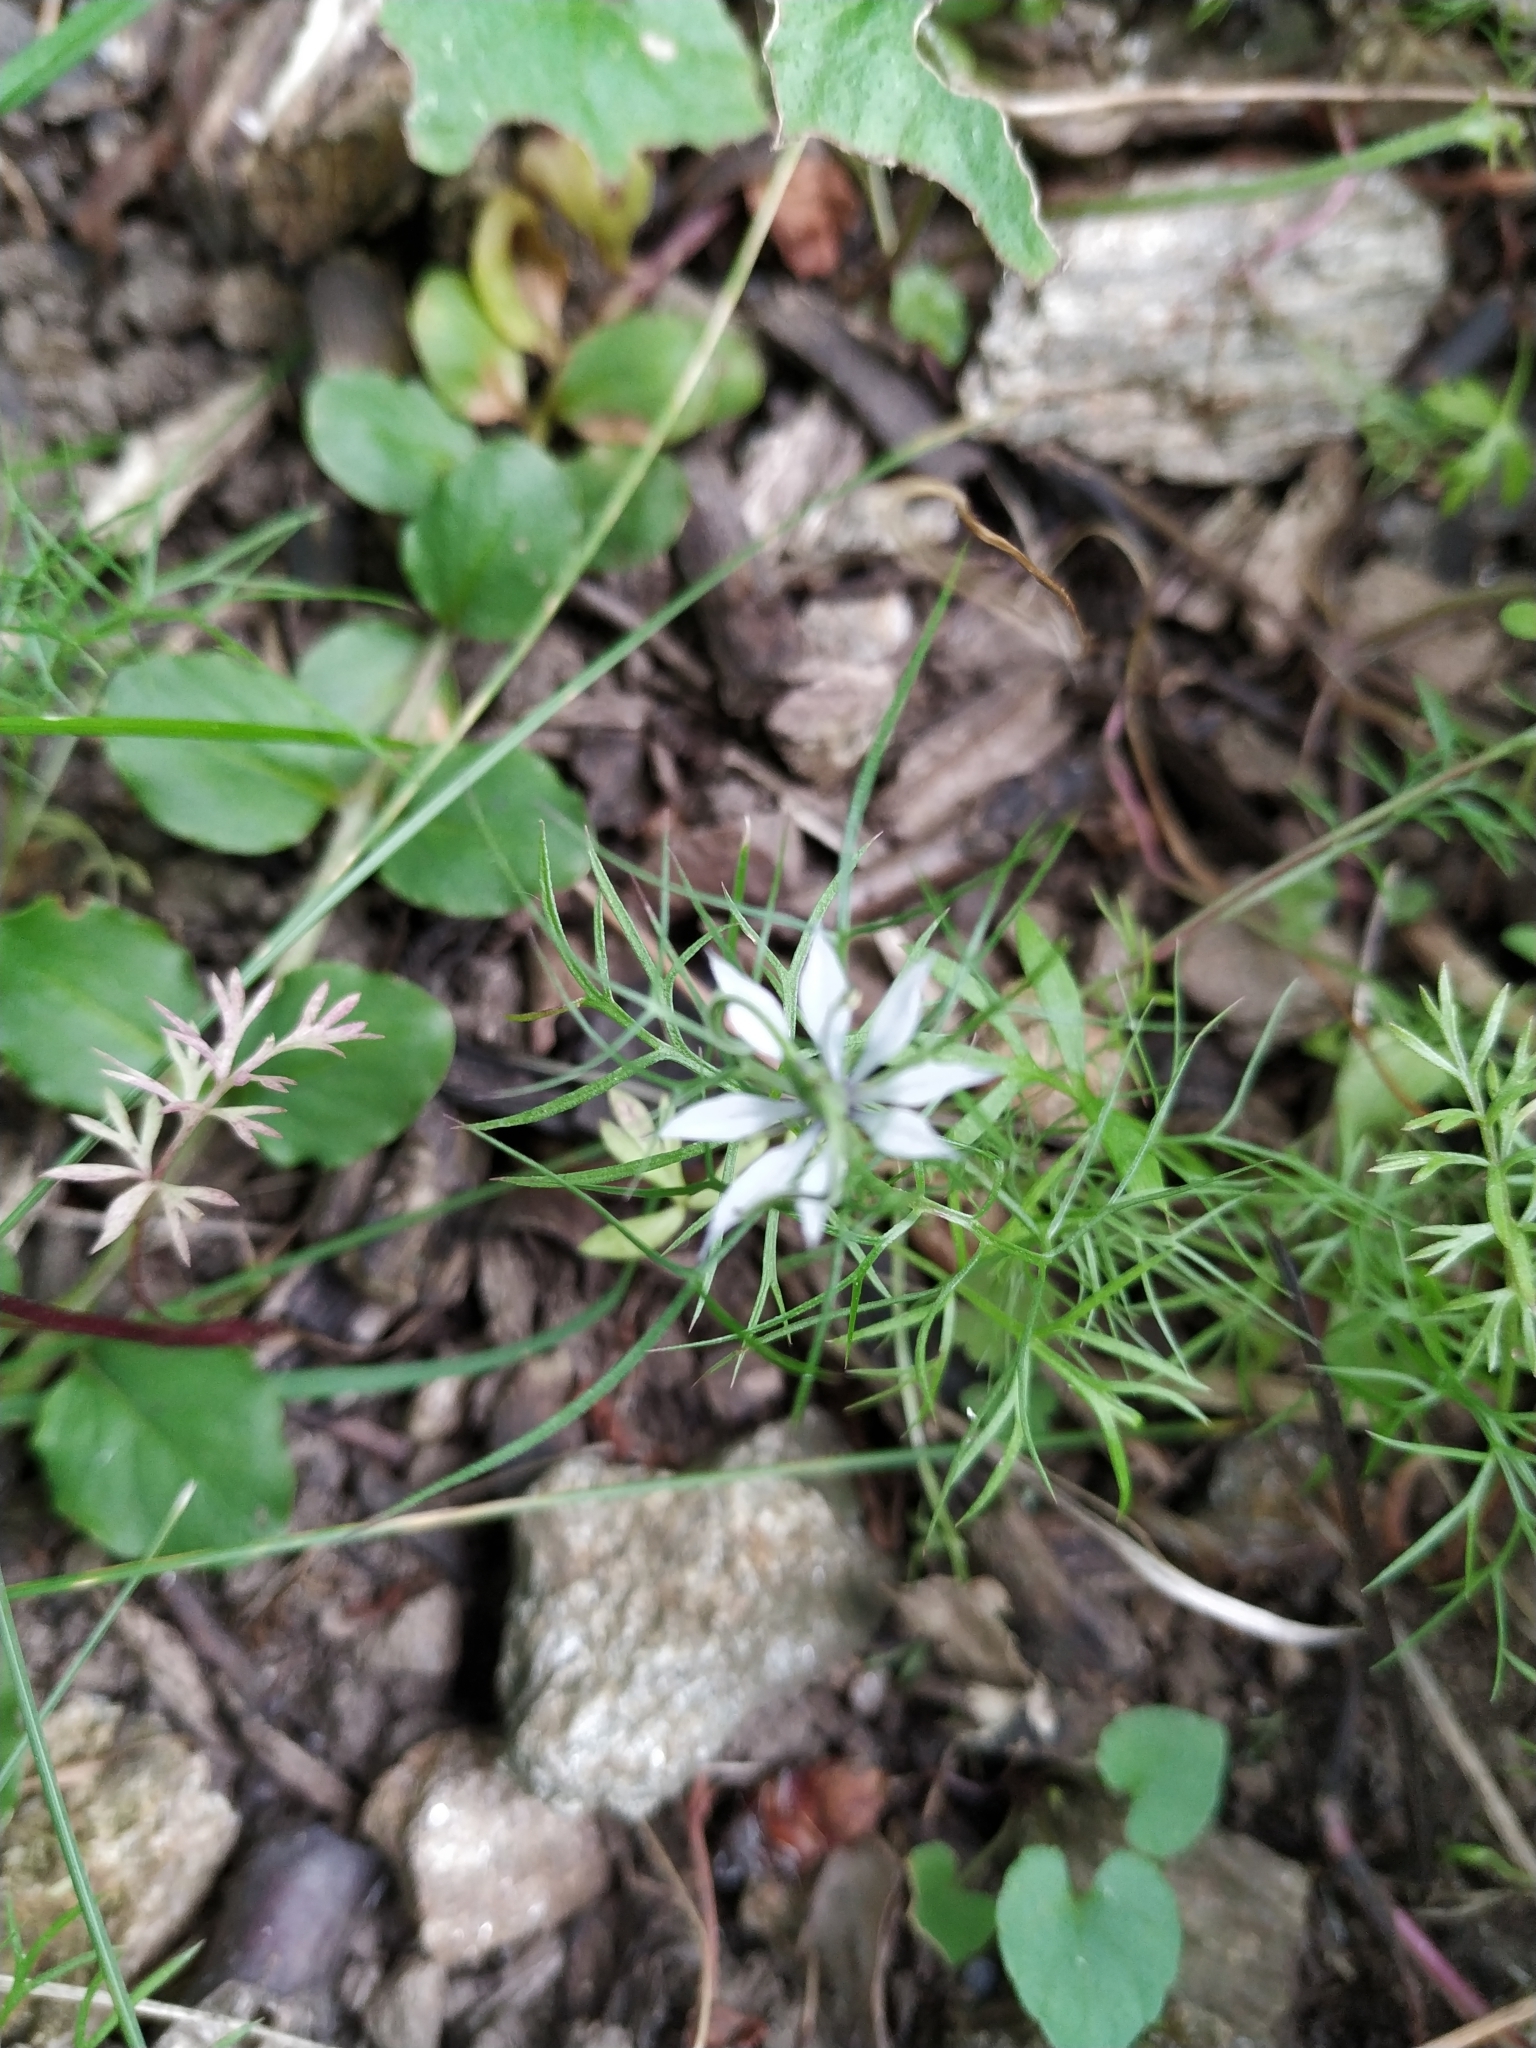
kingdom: Plantae
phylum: Tracheophyta
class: Magnoliopsida
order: Ranunculales
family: Ranunculaceae
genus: Nigella
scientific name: Nigella damascena
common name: Love-in-a-mist
